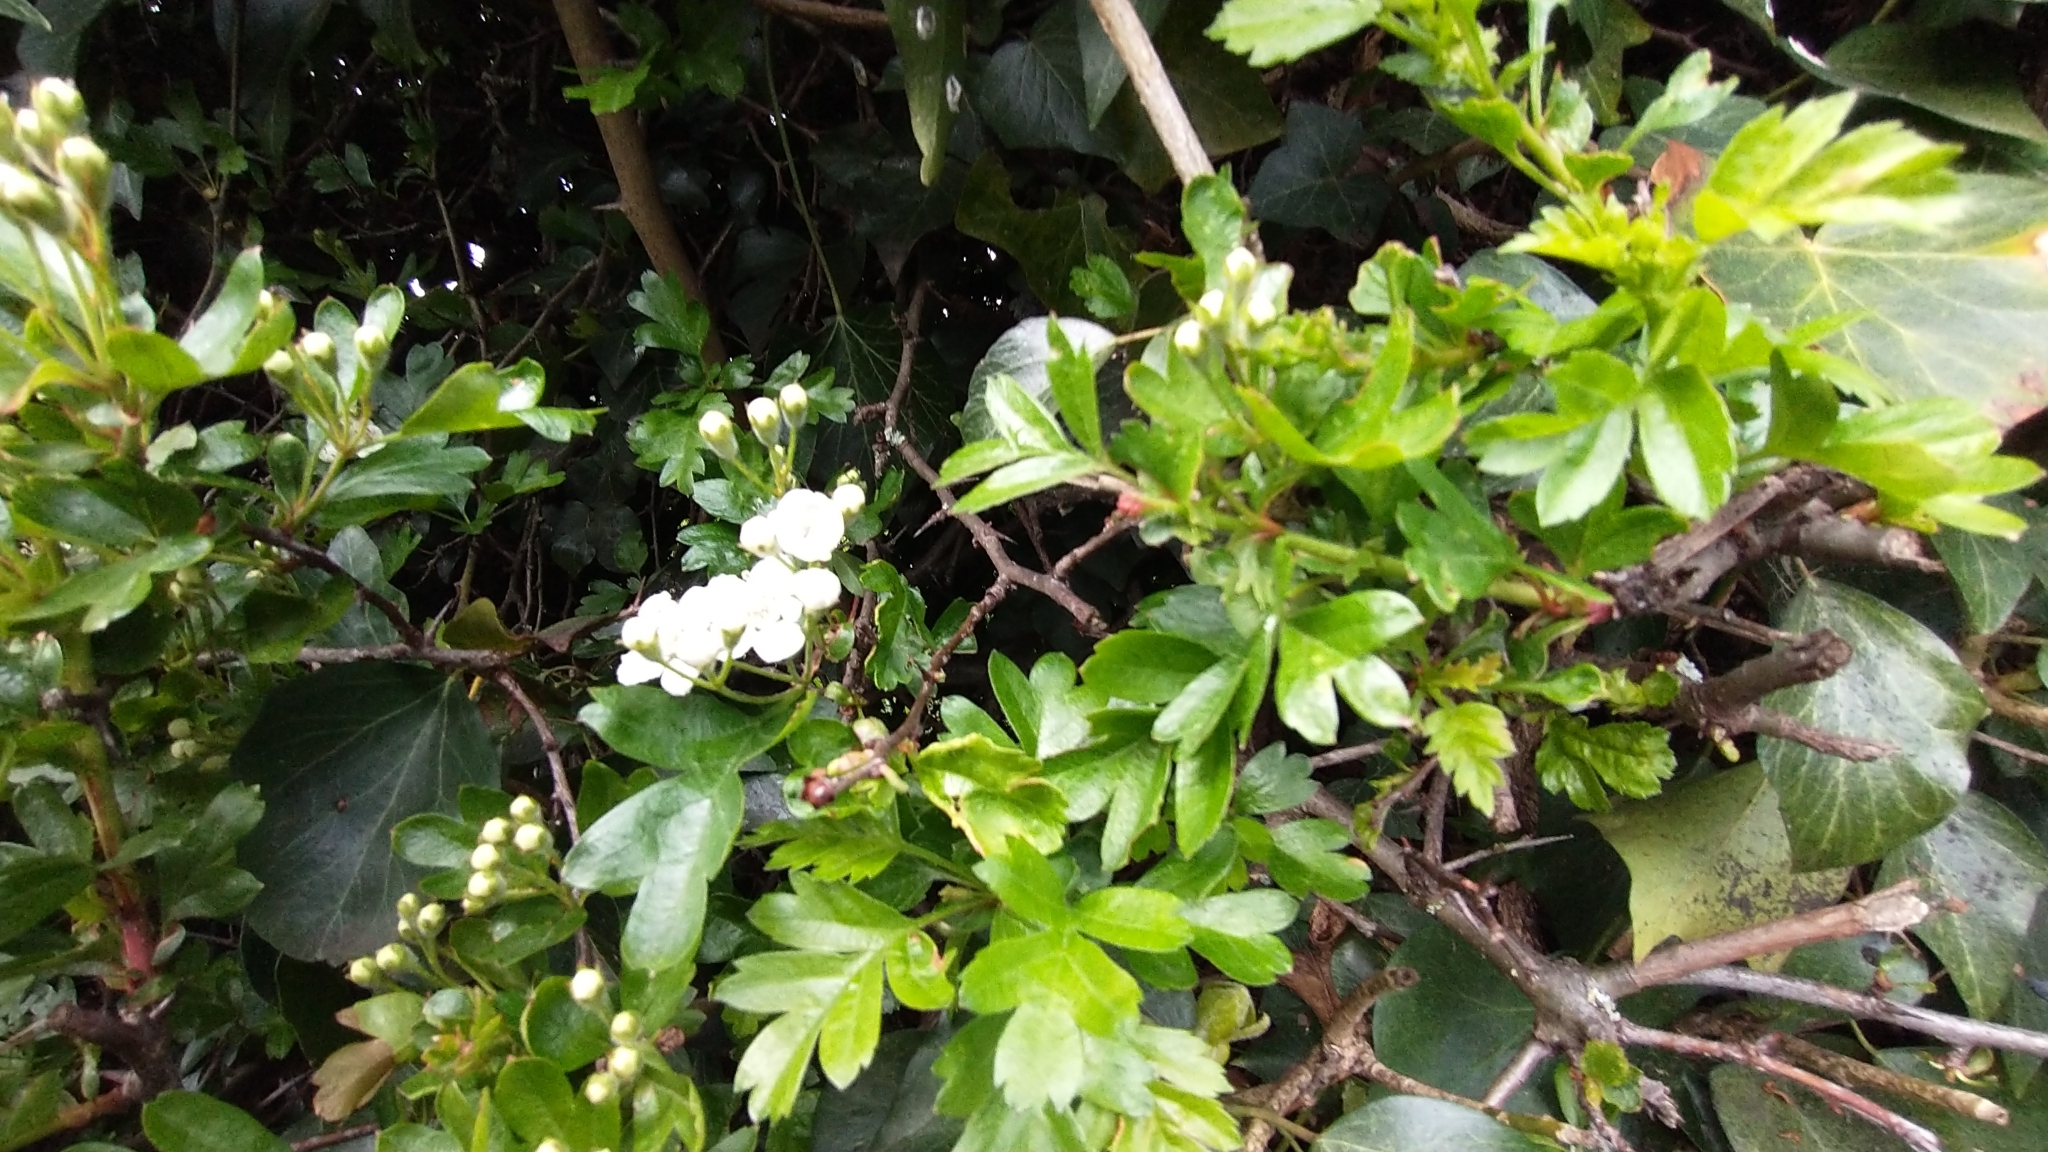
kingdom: Plantae
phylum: Tracheophyta
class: Magnoliopsida
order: Rosales
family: Rosaceae
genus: Crataegus
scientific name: Crataegus monogyna
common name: Hawthorn
